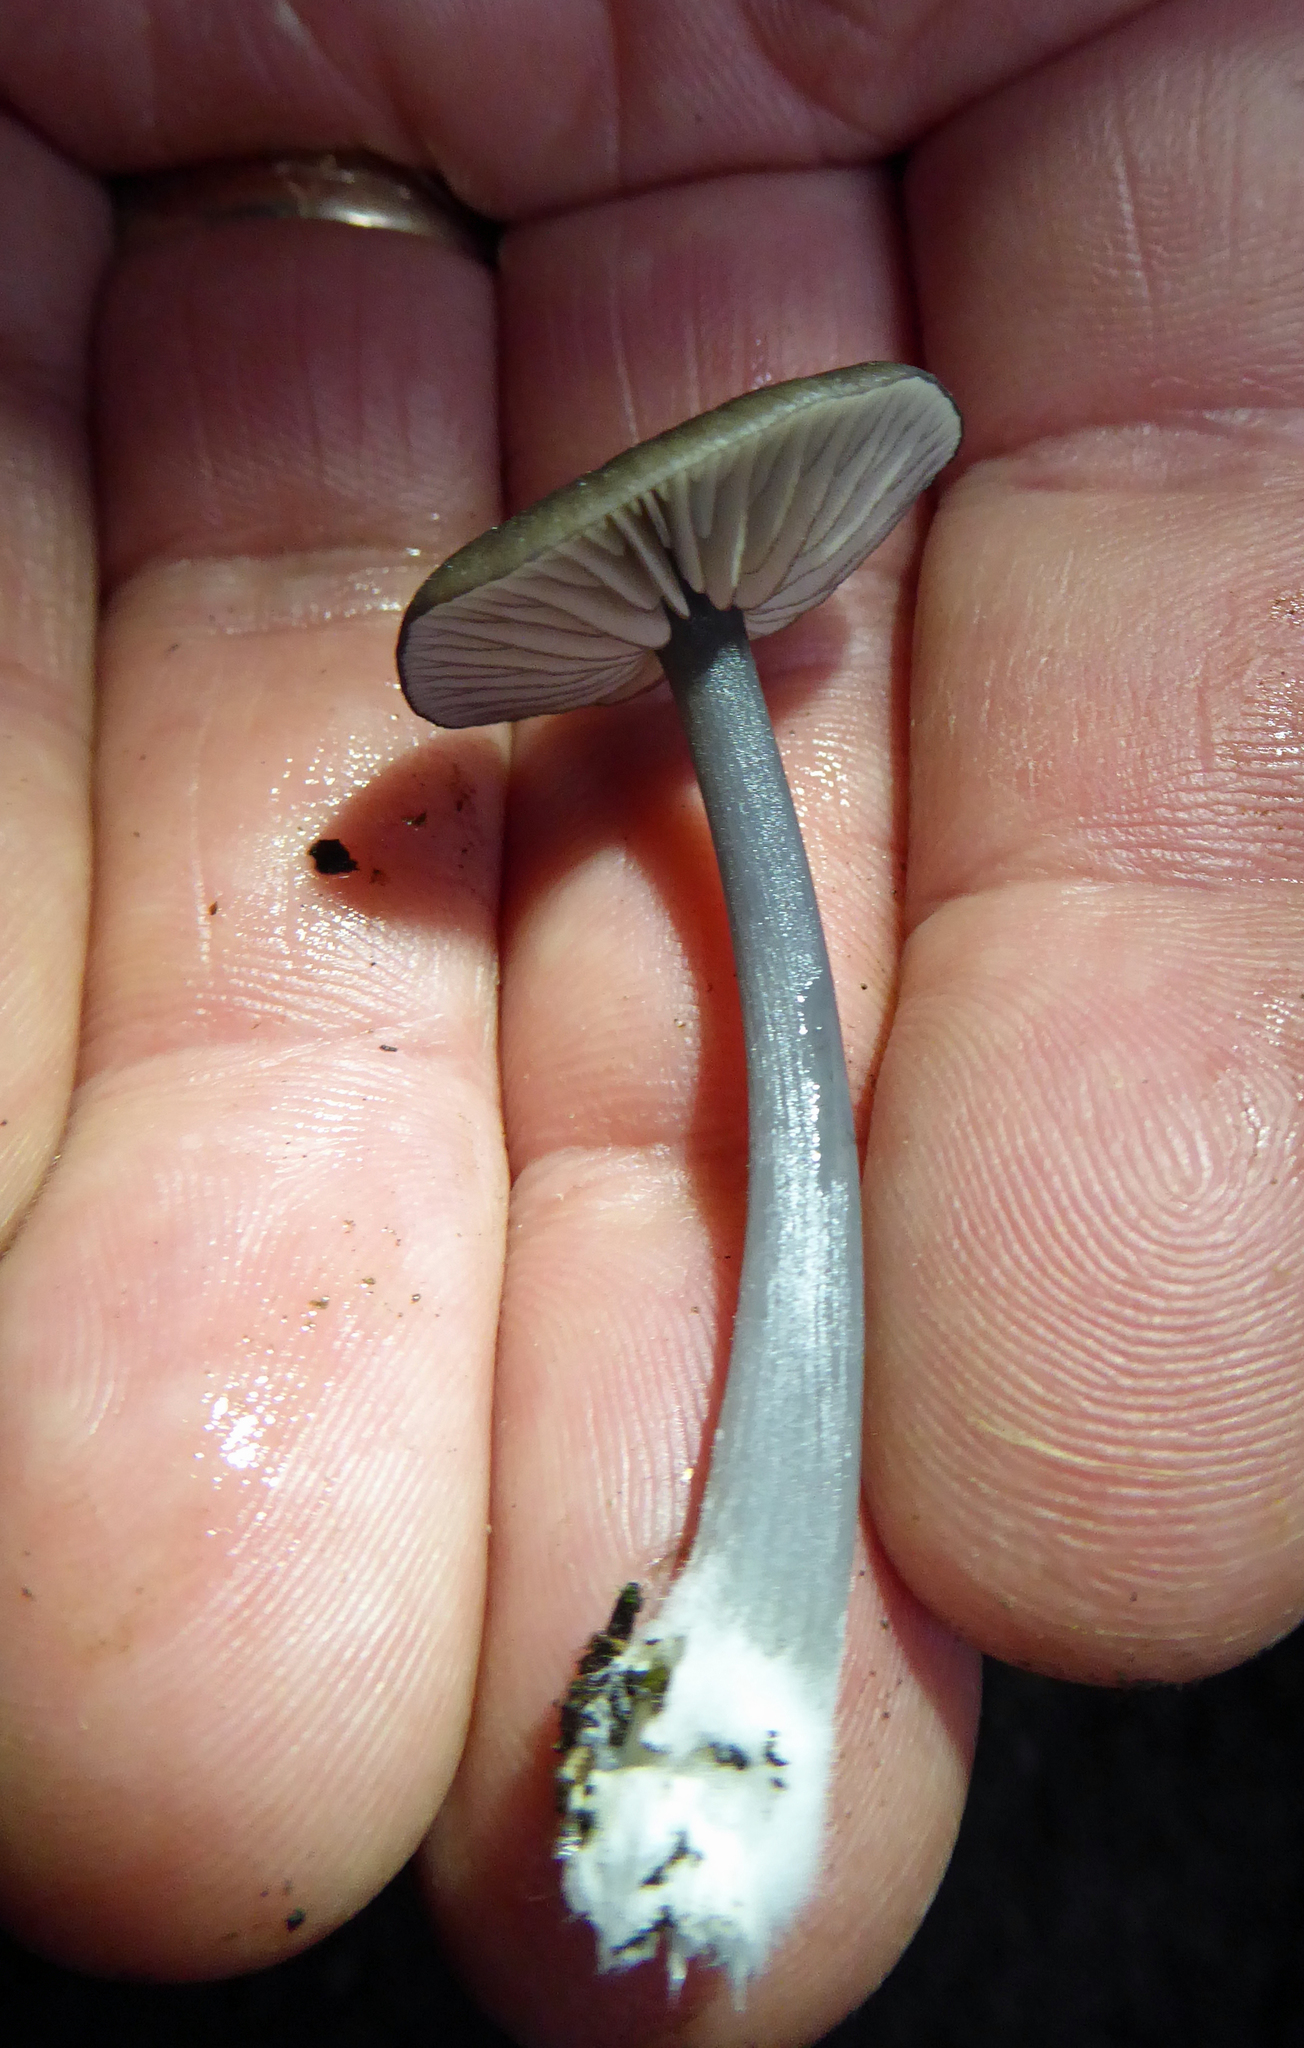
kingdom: Fungi
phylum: Basidiomycota
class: Agaricomycetes
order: Agaricales
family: Entolomataceae
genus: Entoloma
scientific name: Entoloma melanocephalum
